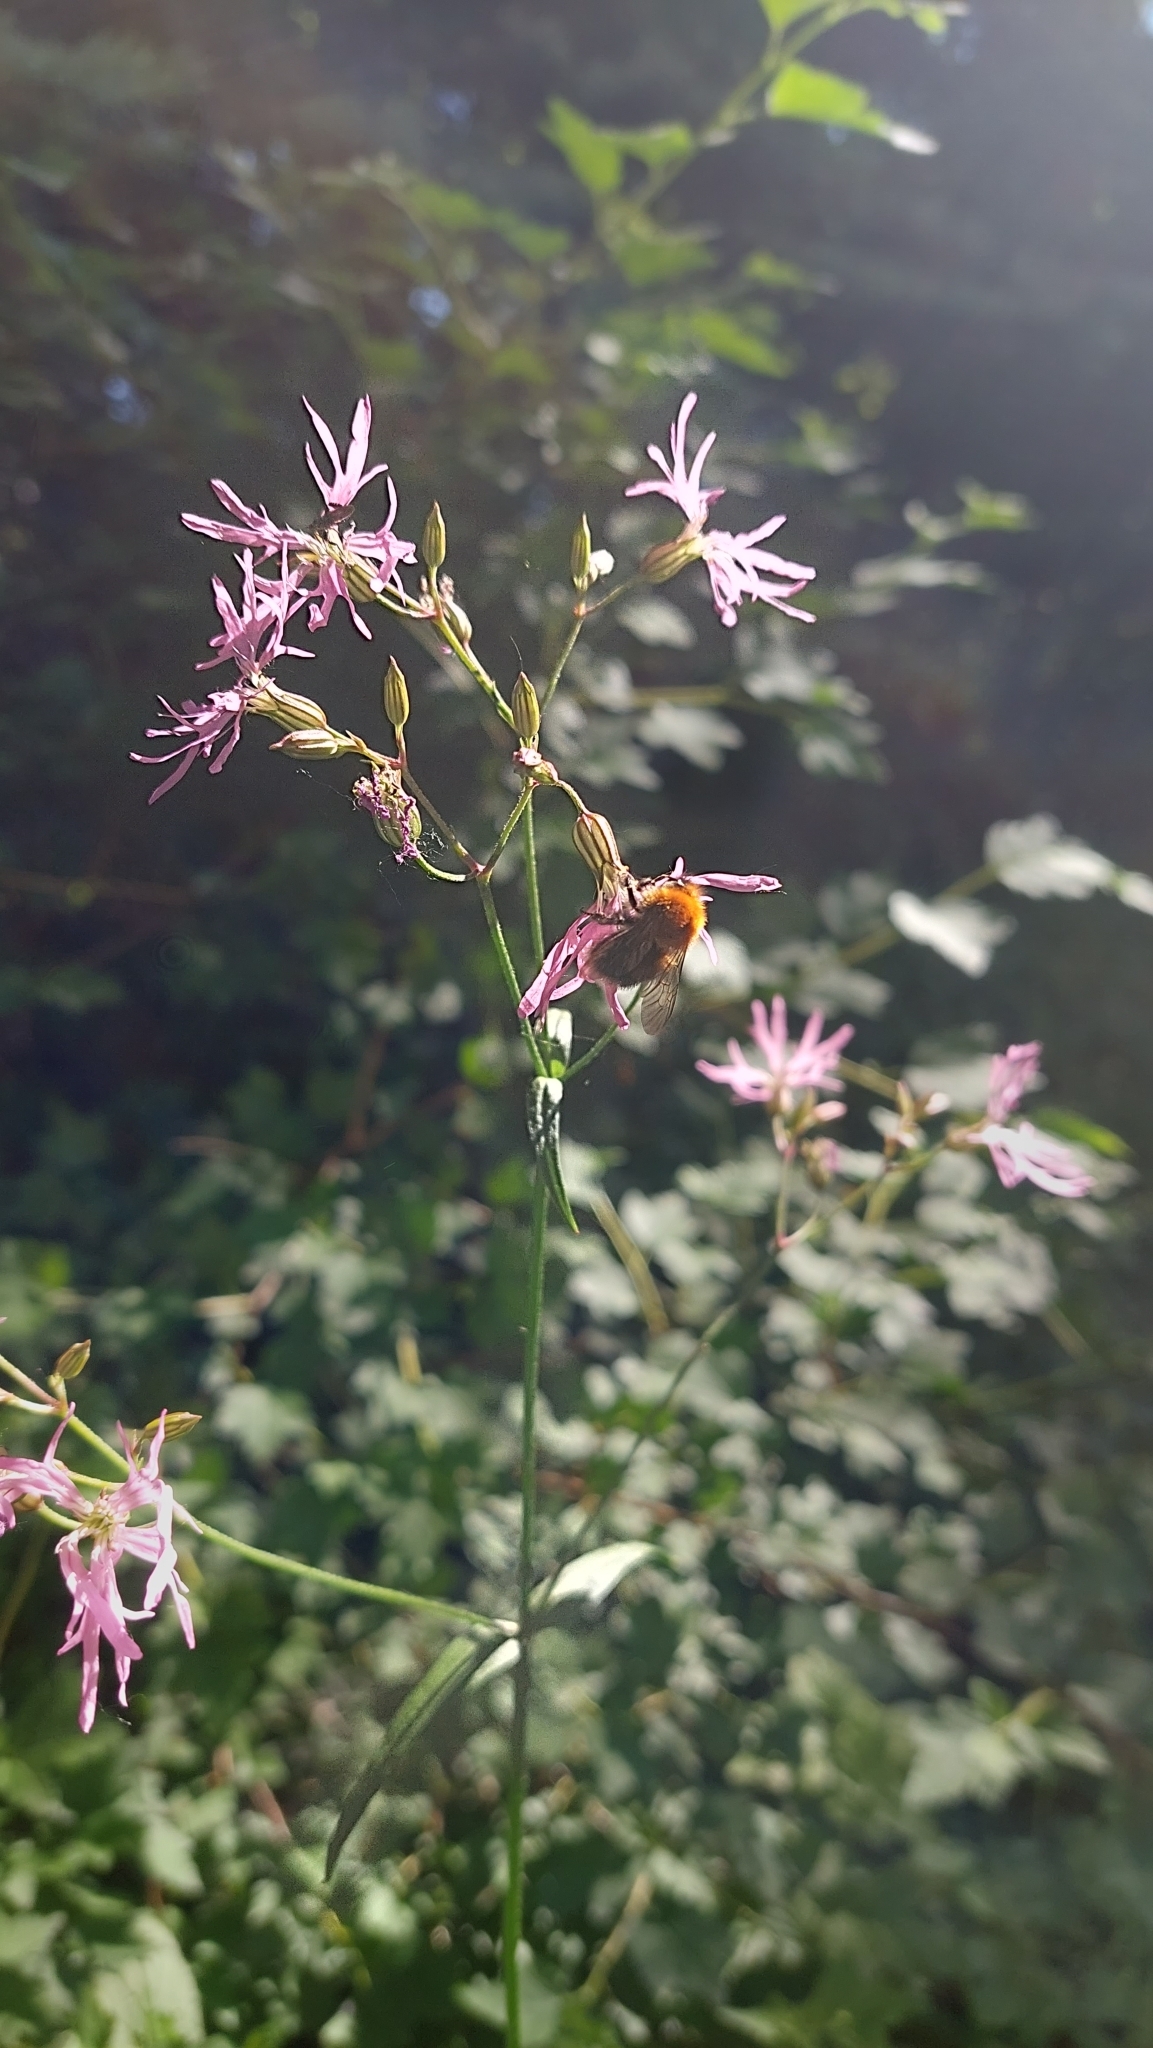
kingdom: Plantae
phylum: Tracheophyta
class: Magnoliopsida
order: Caryophyllales
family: Caryophyllaceae
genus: Silene
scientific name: Silene flos-cuculi
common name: Ragged-robin
